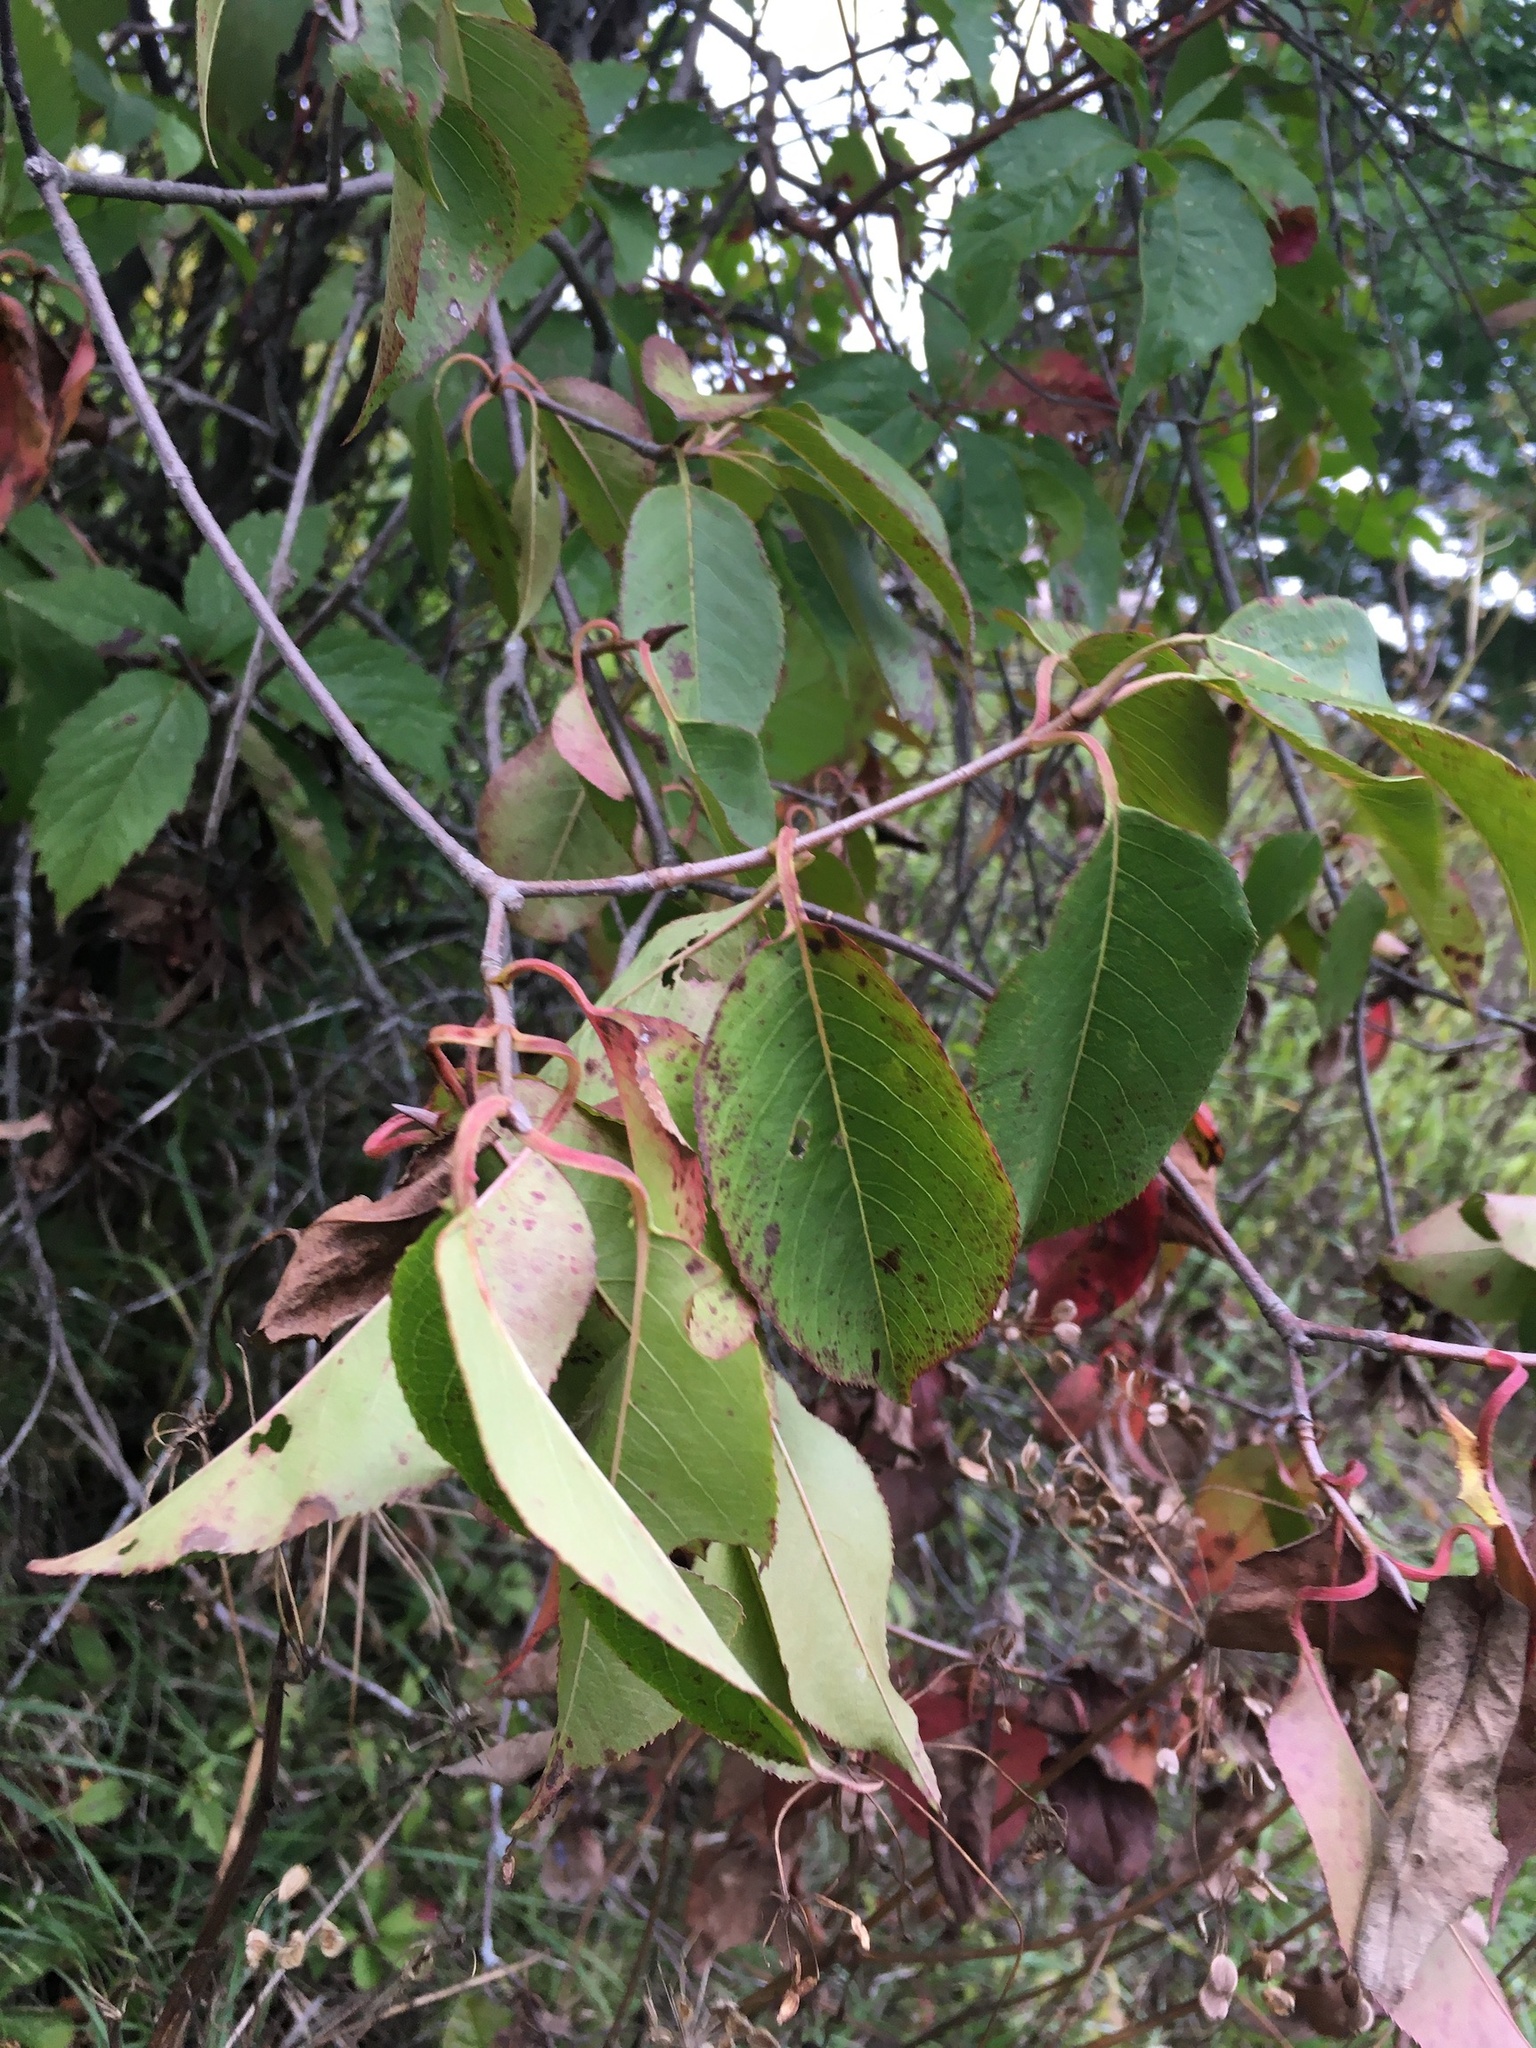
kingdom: Plantae
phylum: Tracheophyta
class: Magnoliopsida
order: Dipsacales
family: Viburnaceae
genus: Viburnum
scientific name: Viburnum lentago
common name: Black haw
